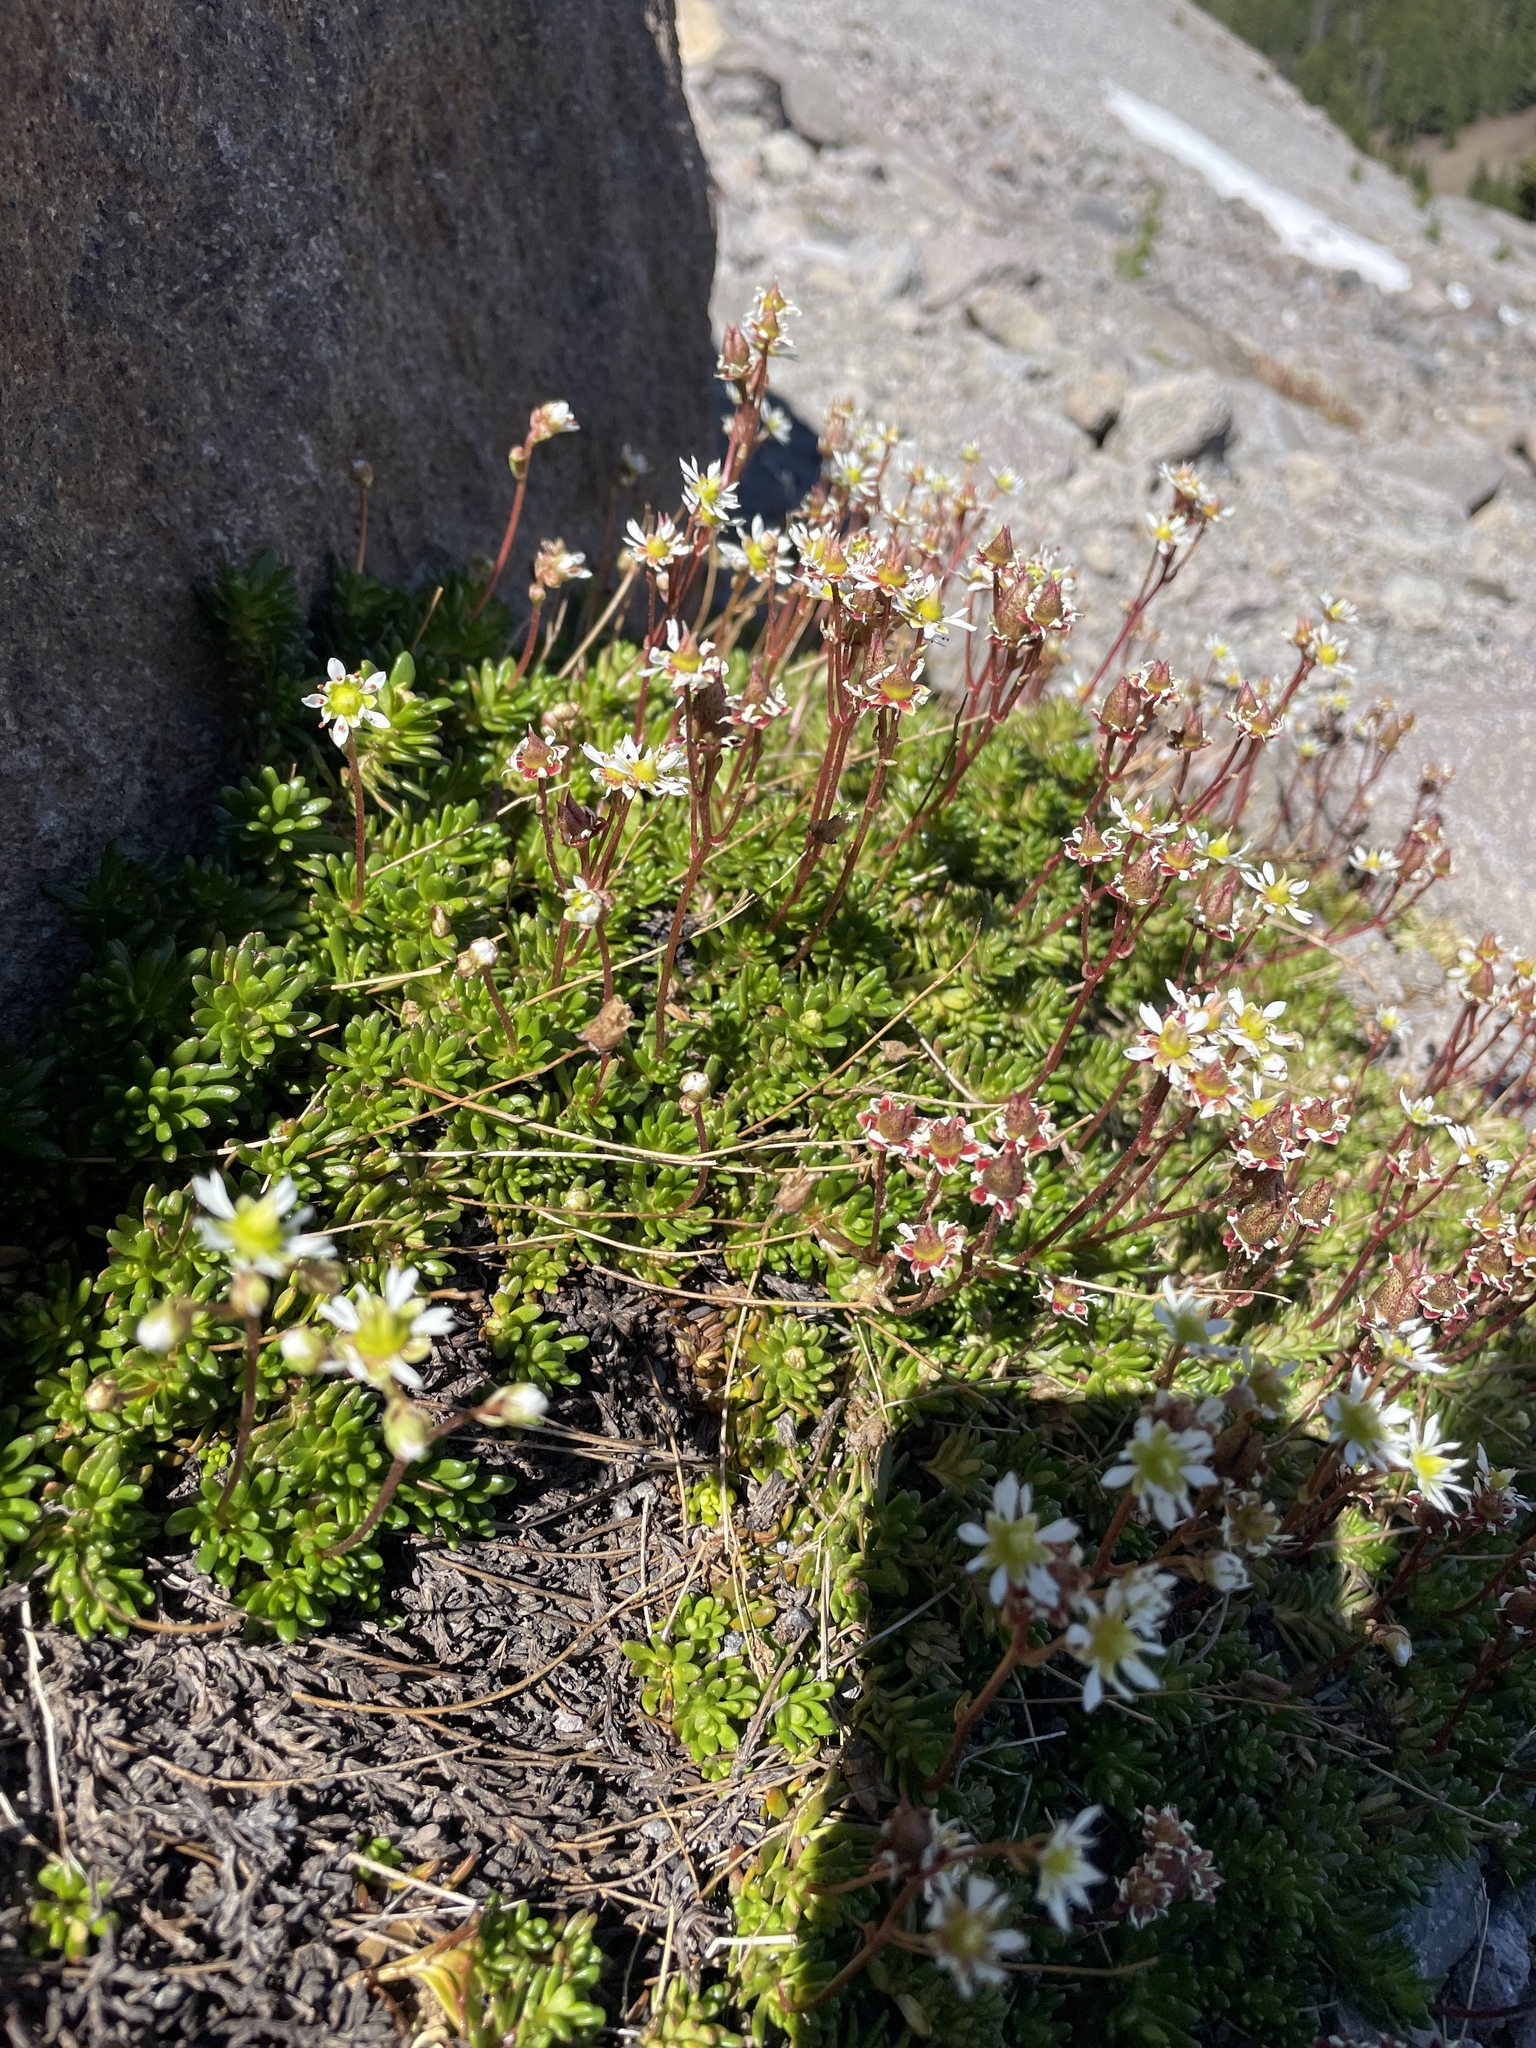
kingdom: Plantae
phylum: Tracheophyta
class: Magnoliopsida
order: Saxifragales
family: Saxifragaceae
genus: Micranthes
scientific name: Micranthes tolmiei
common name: Tolmie's saxifrage
